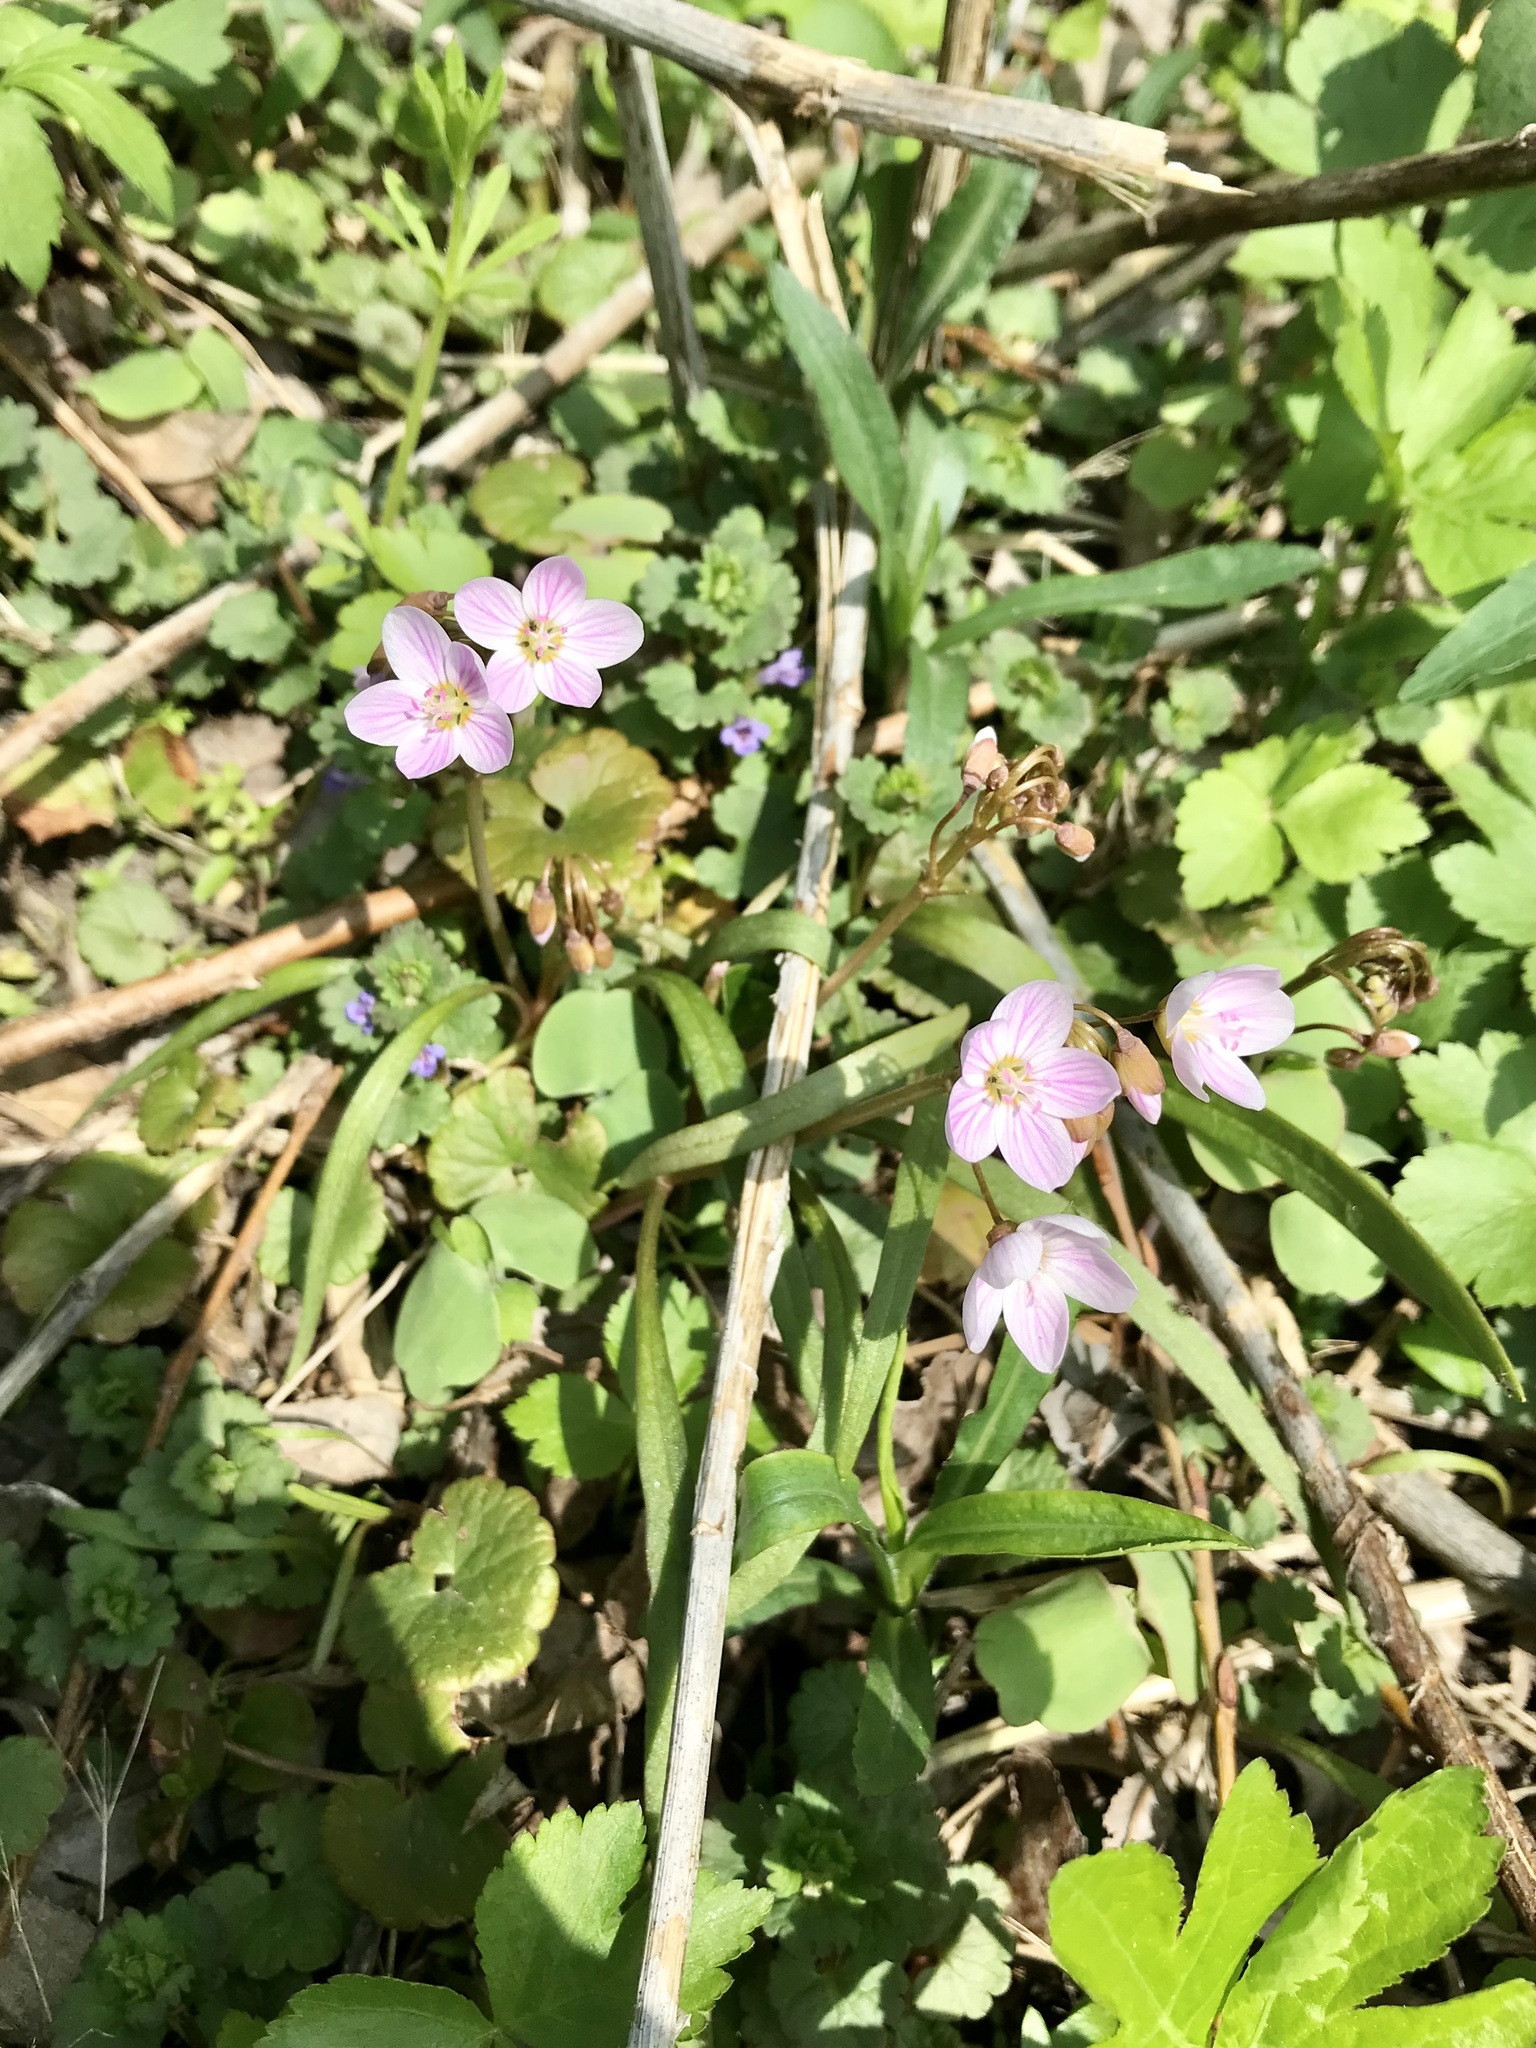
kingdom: Plantae
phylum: Tracheophyta
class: Magnoliopsida
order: Caryophyllales
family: Montiaceae
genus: Claytonia
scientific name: Claytonia virginica
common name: Virginia springbeauty
